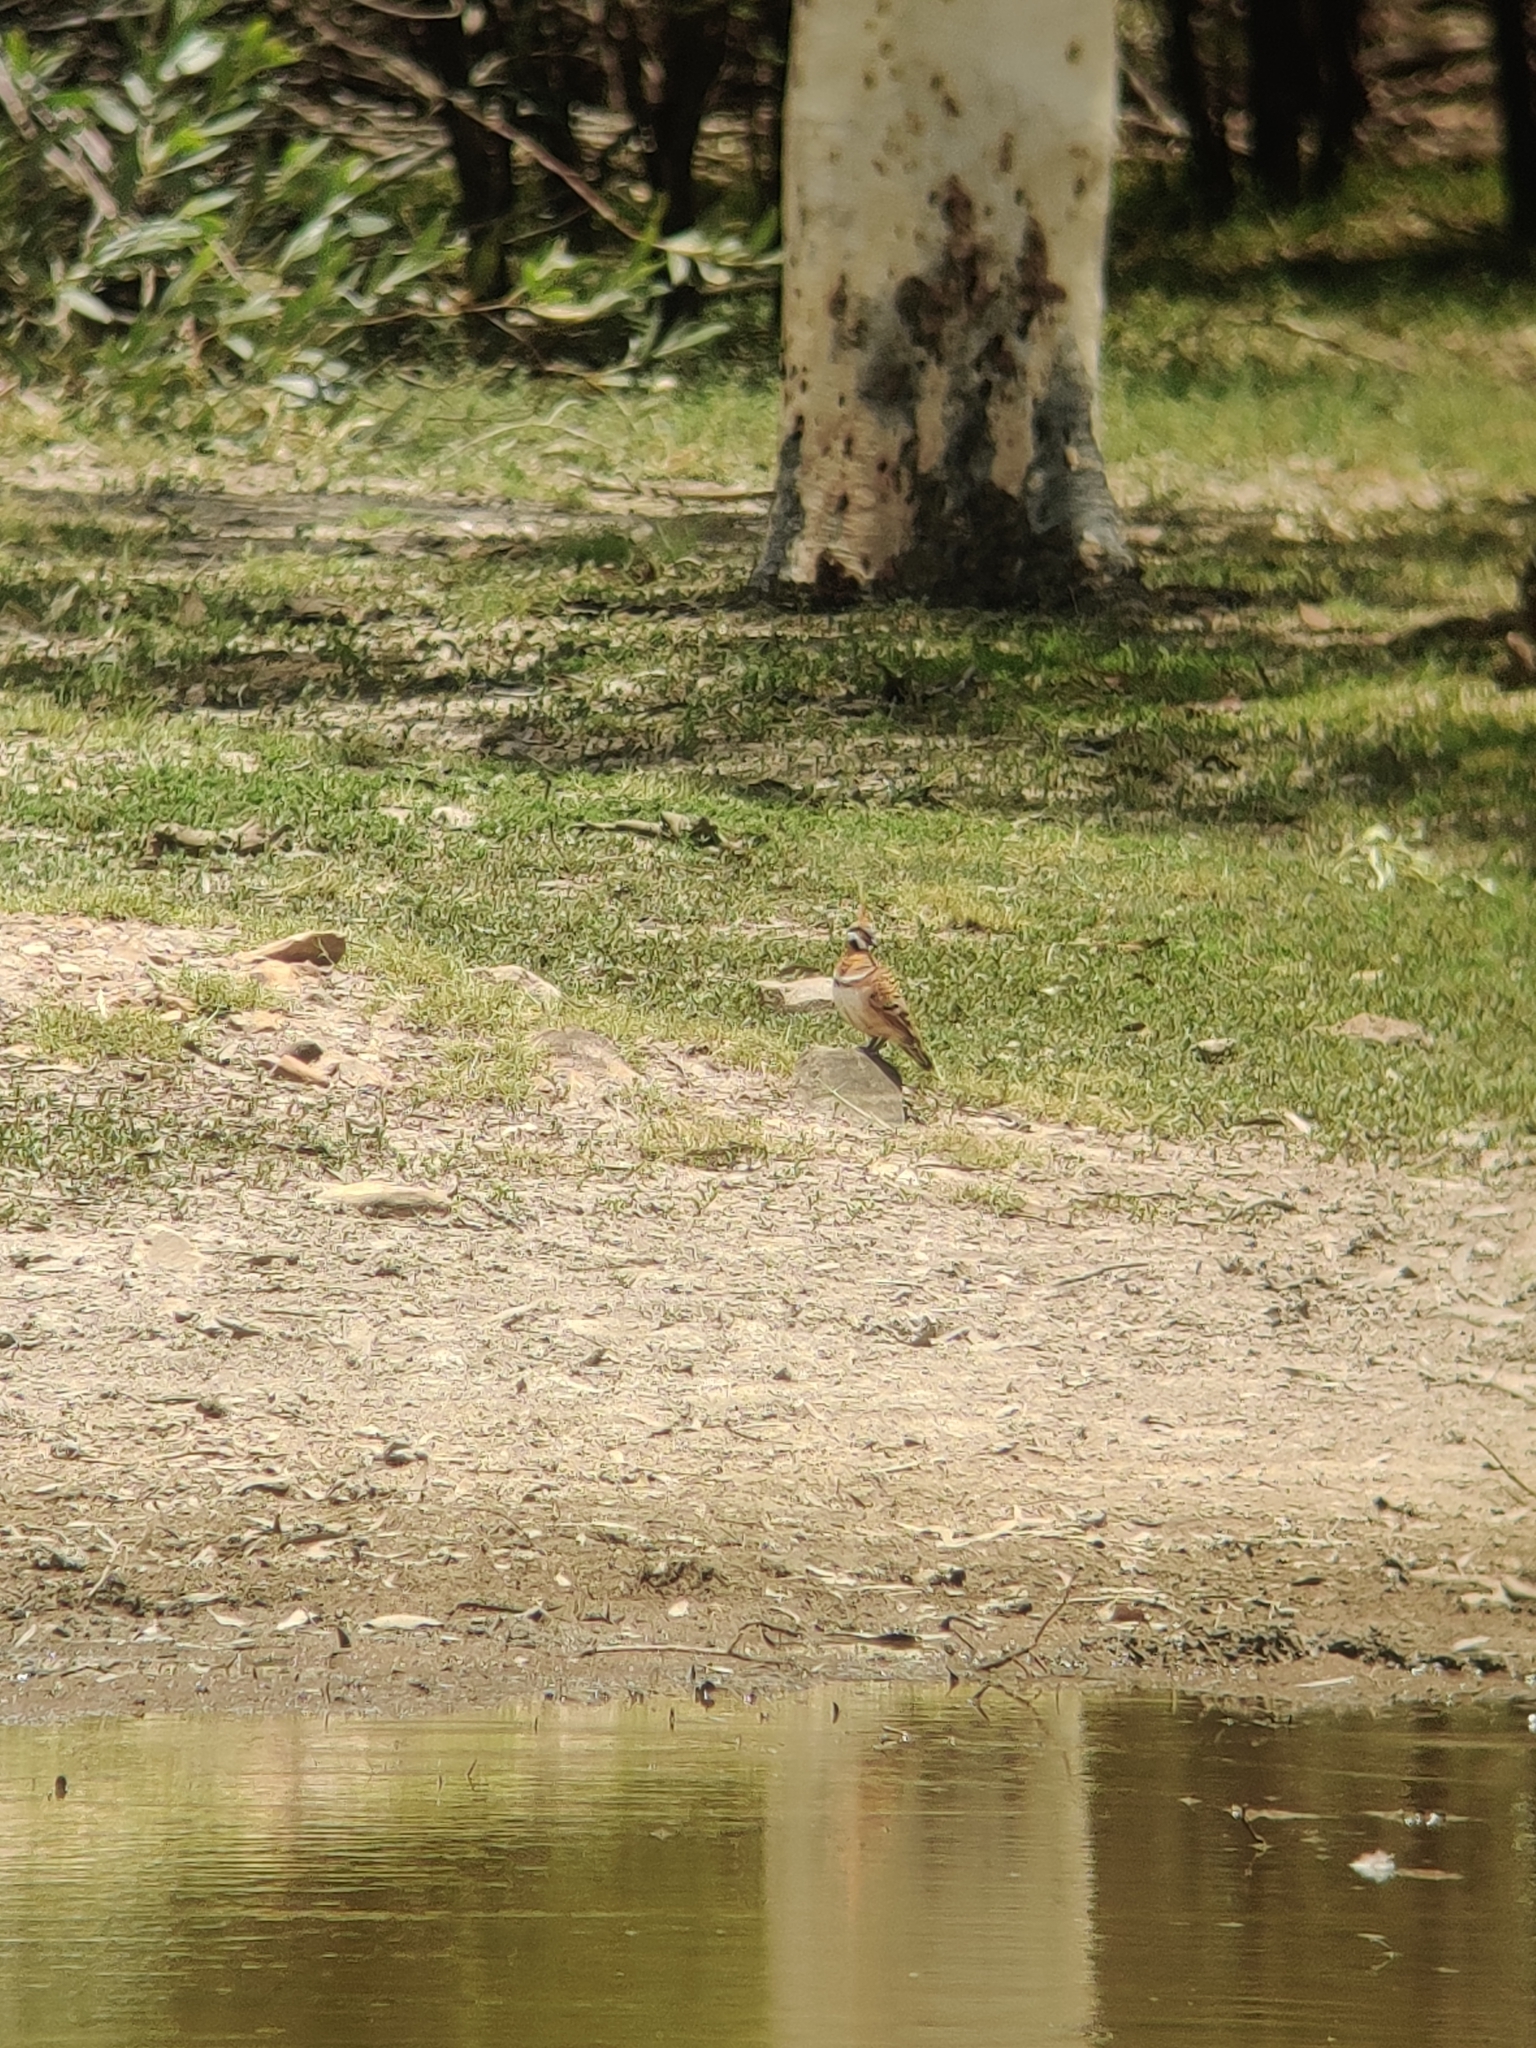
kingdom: Animalia
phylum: Chordata
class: Aves
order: Columbiformes
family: Columbidae
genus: Geophaps
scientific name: Geophaps plumifera
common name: Spinifex pigeon
